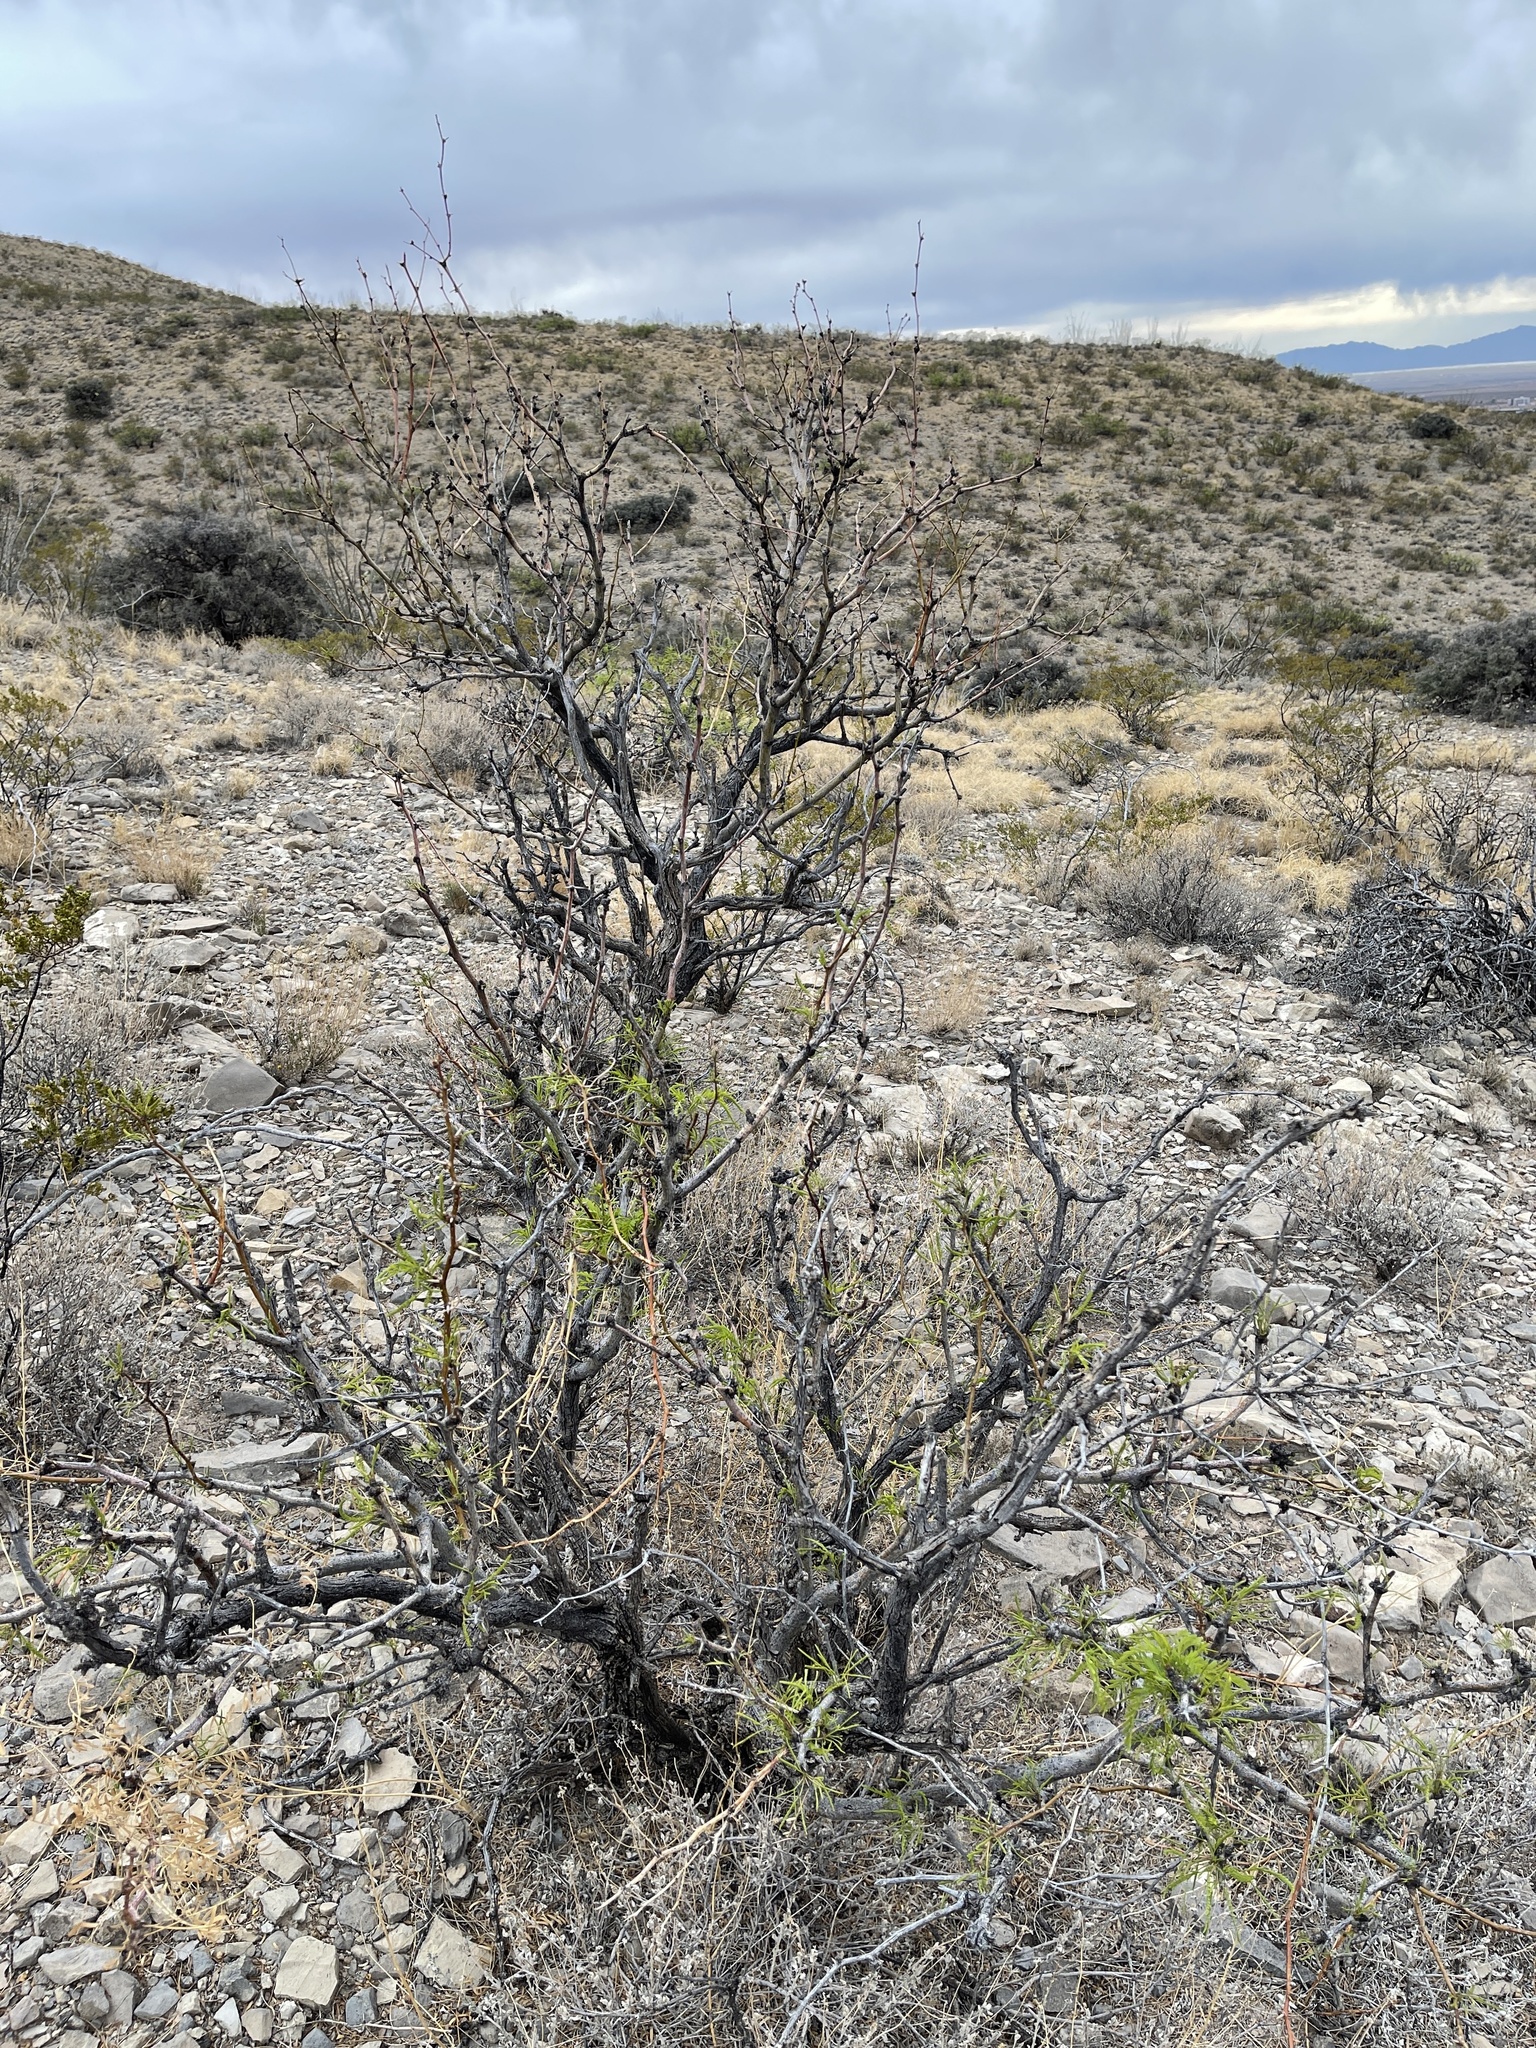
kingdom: Plantae
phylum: Tracheophyta
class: Magnoliopsida
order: Fabales
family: Fabaceae
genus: Prosopis
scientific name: Prosopis glandulosa
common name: Honey mesquite
